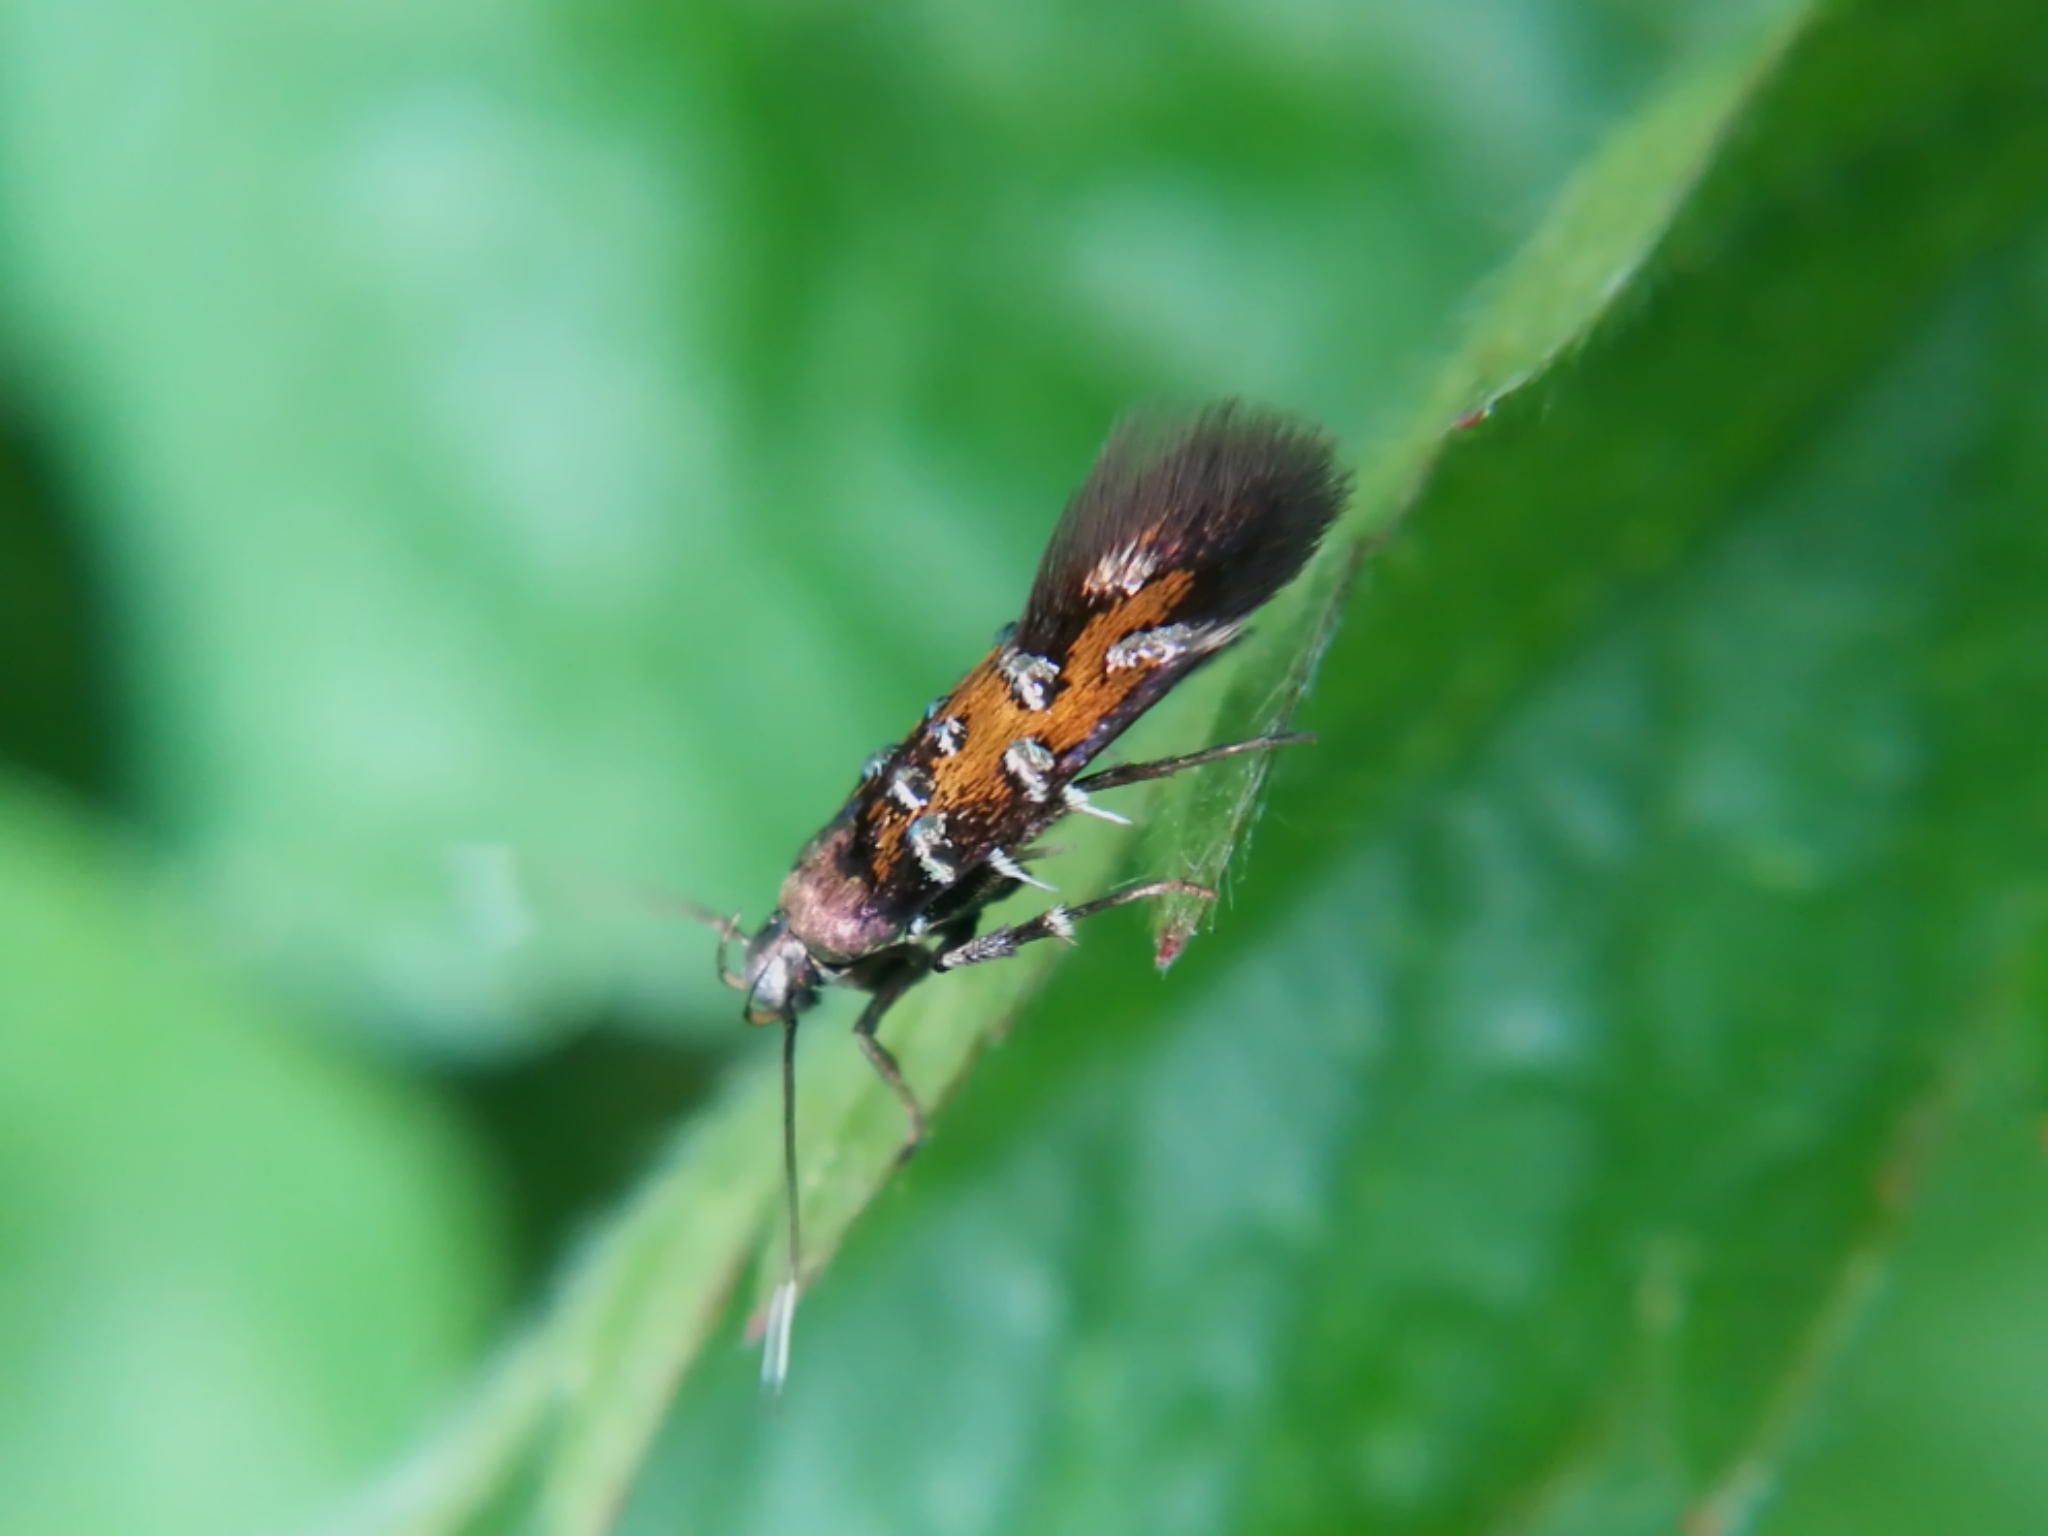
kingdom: Animalia
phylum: Arthropoda
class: Insecta
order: Lepidoptera
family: Cosmopterigidae
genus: Pancalia
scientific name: Pancalia leuwenhoekella
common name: Violet cosmet
